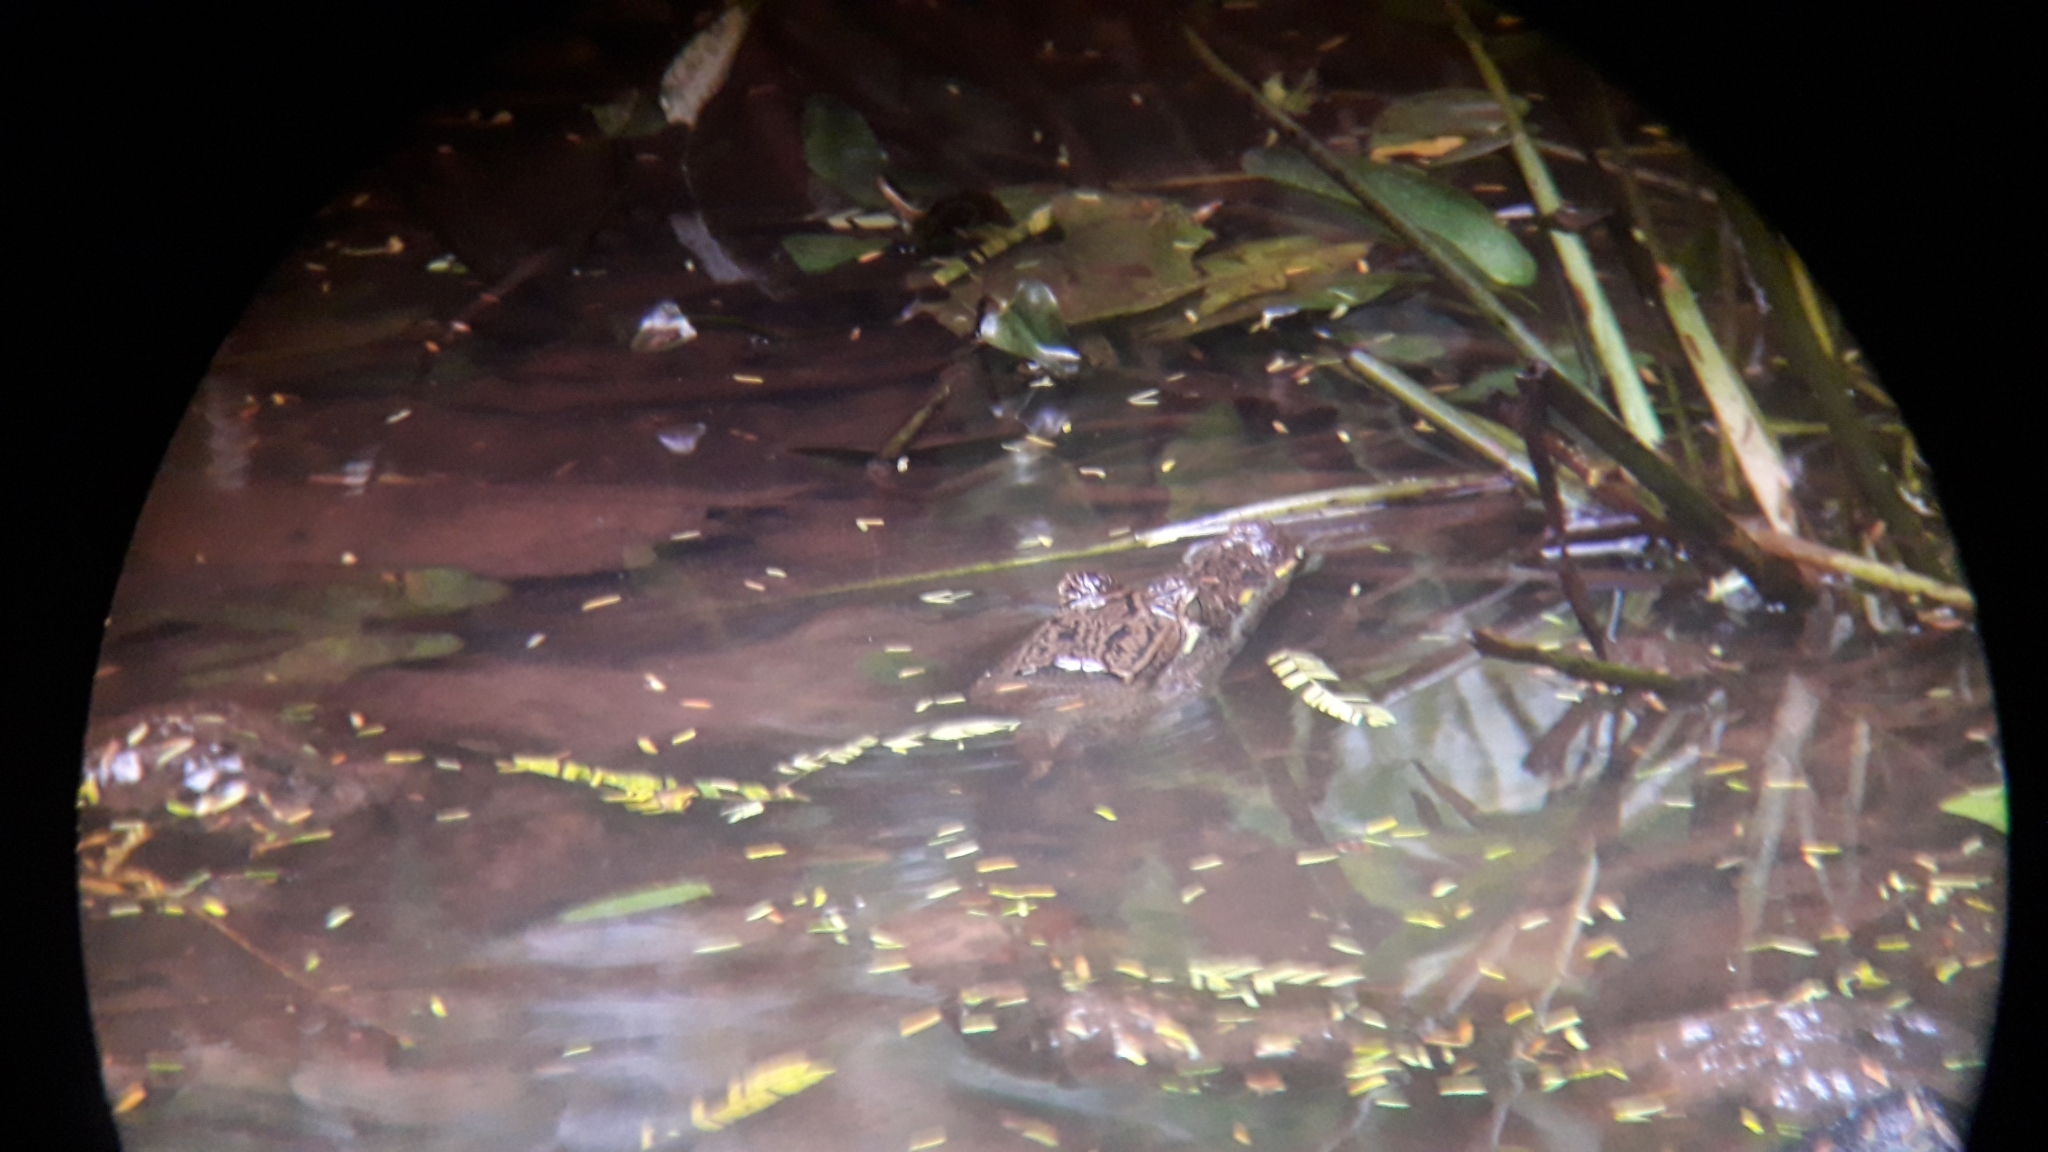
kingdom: Animalia
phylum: Chordata
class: Crocodylia
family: Alligatoridae
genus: Caiman
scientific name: Caiman crocodilus
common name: Common caiman
